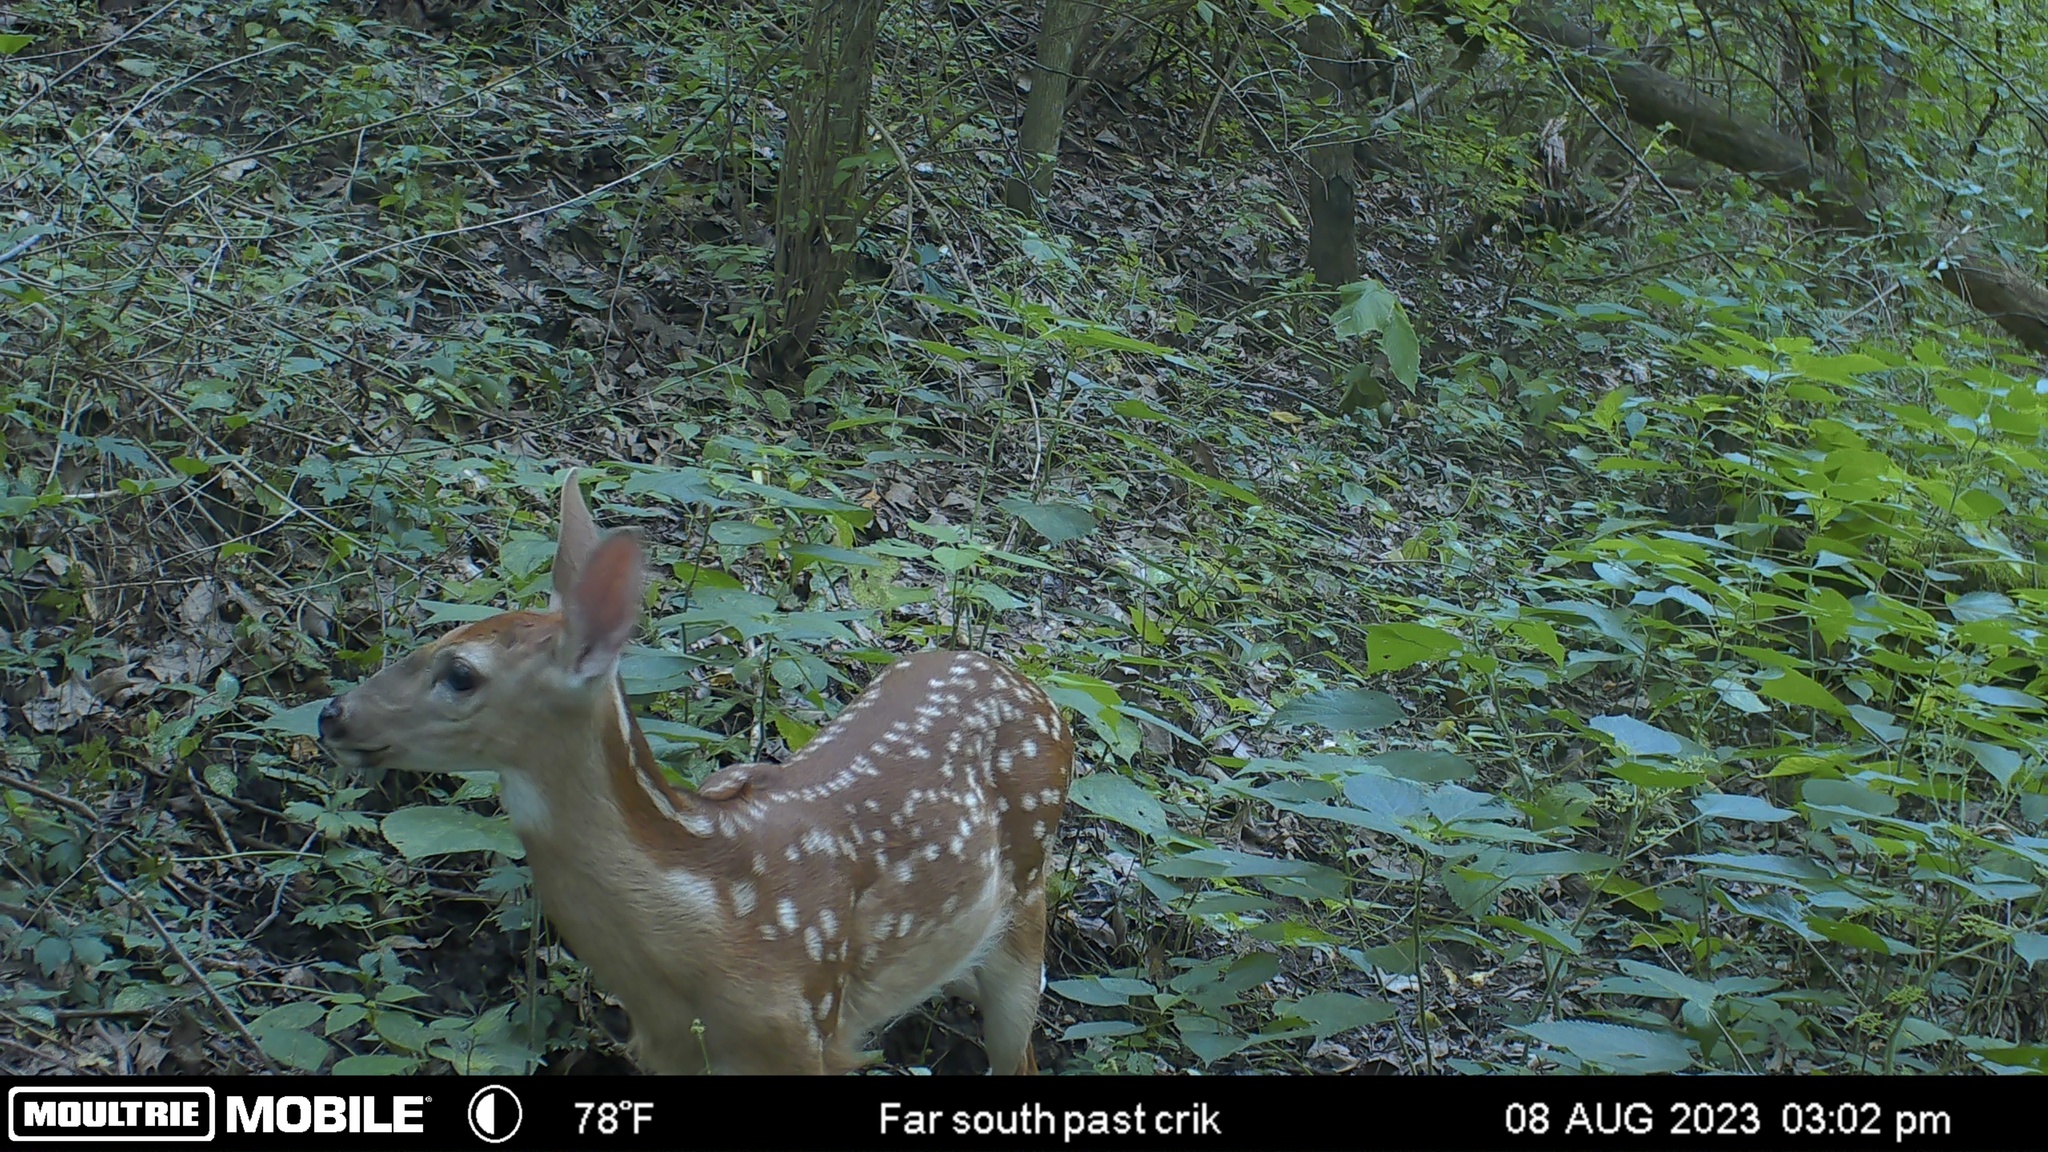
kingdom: Animalia
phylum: Chordata
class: Mammalia
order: Artiodactyla
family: Cervidae
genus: Odocoileus
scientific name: Odocoileus virginianus
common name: White-tailed deer
